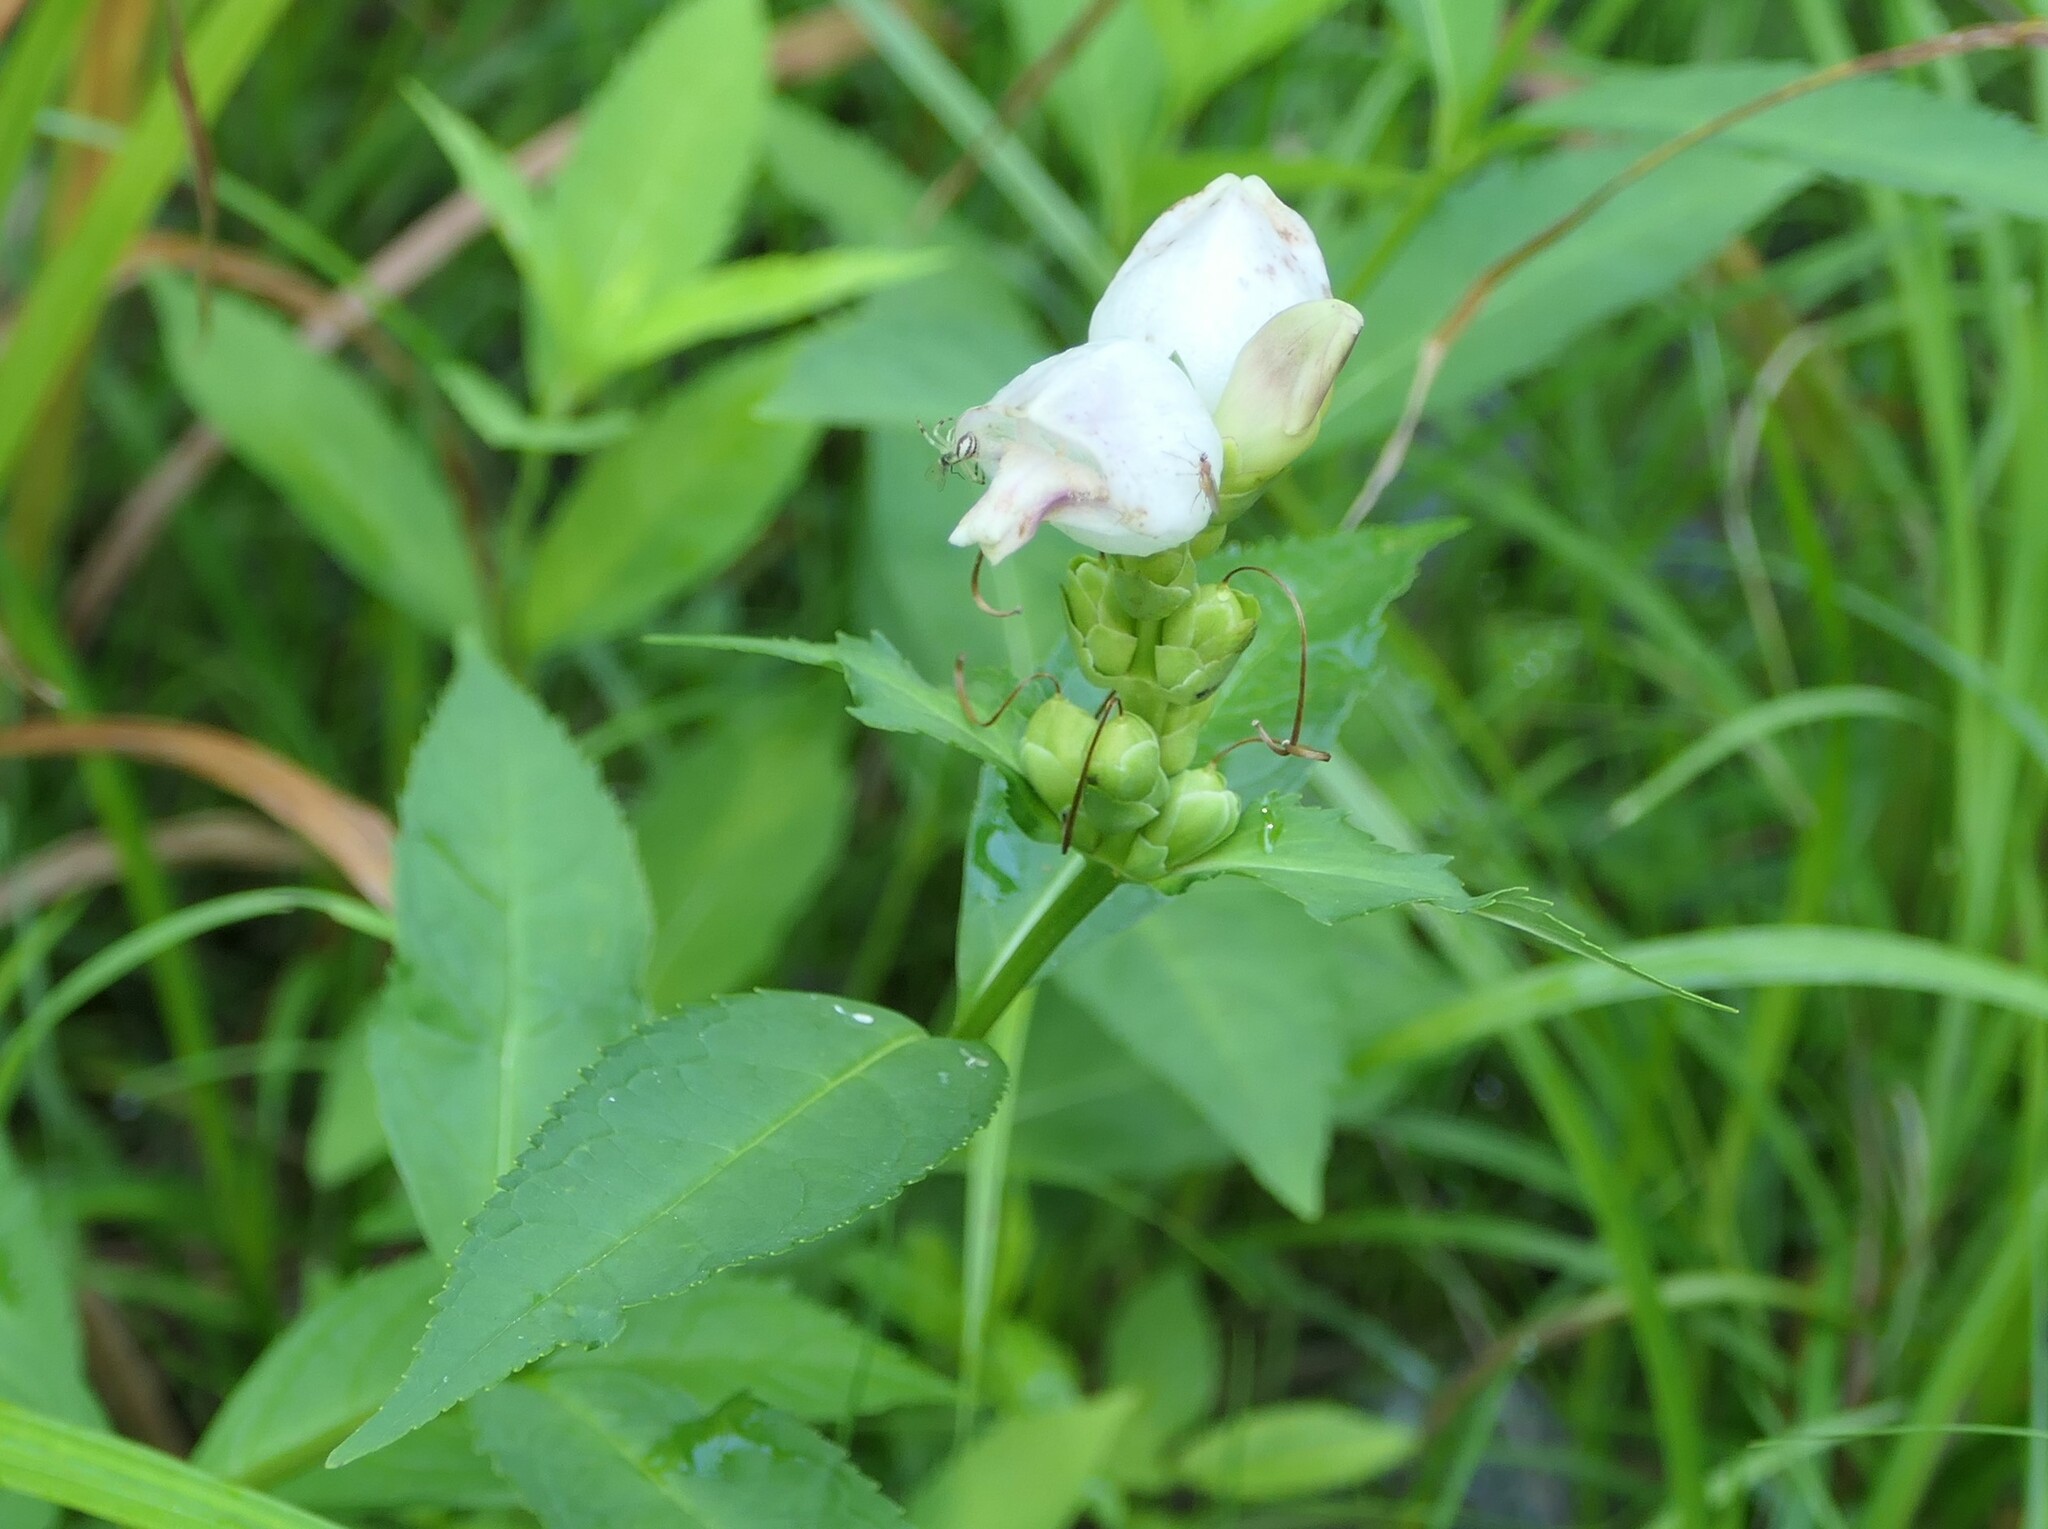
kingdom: Plantae
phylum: Tracheophyta
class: Magnoliopsida
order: Lamiales
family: Plantaginaceae
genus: Chelone
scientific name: Chelone glabra
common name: Snakehead
